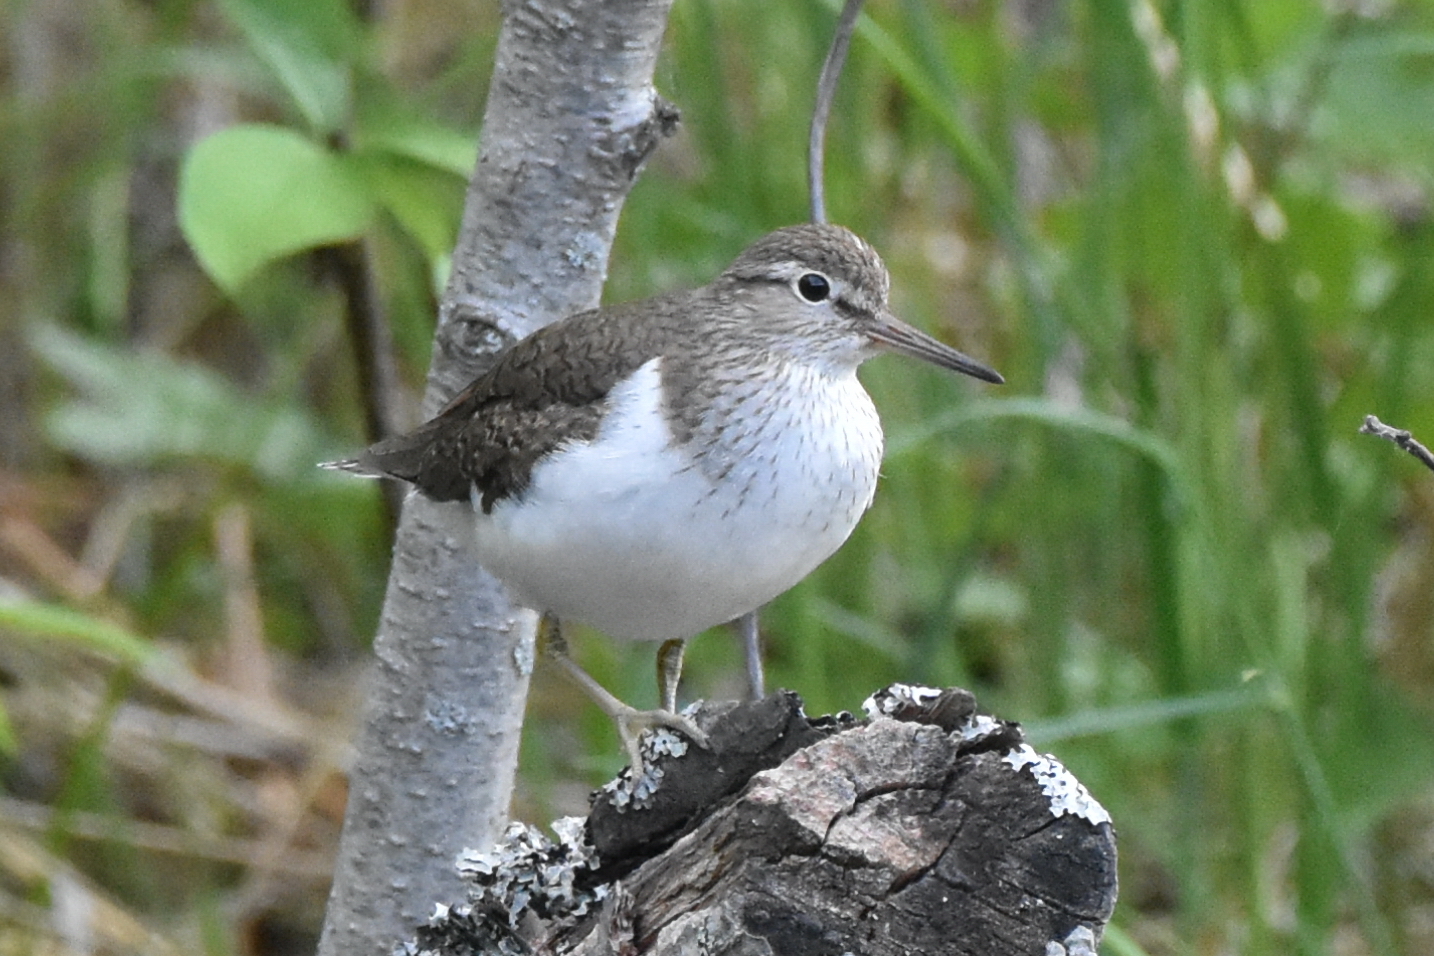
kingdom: Animalia
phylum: Chordata
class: Aves
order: Charadriiformes
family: Scolopacidae
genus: Actitis
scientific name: Actitis hypoleucos
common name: Common sandpiper
